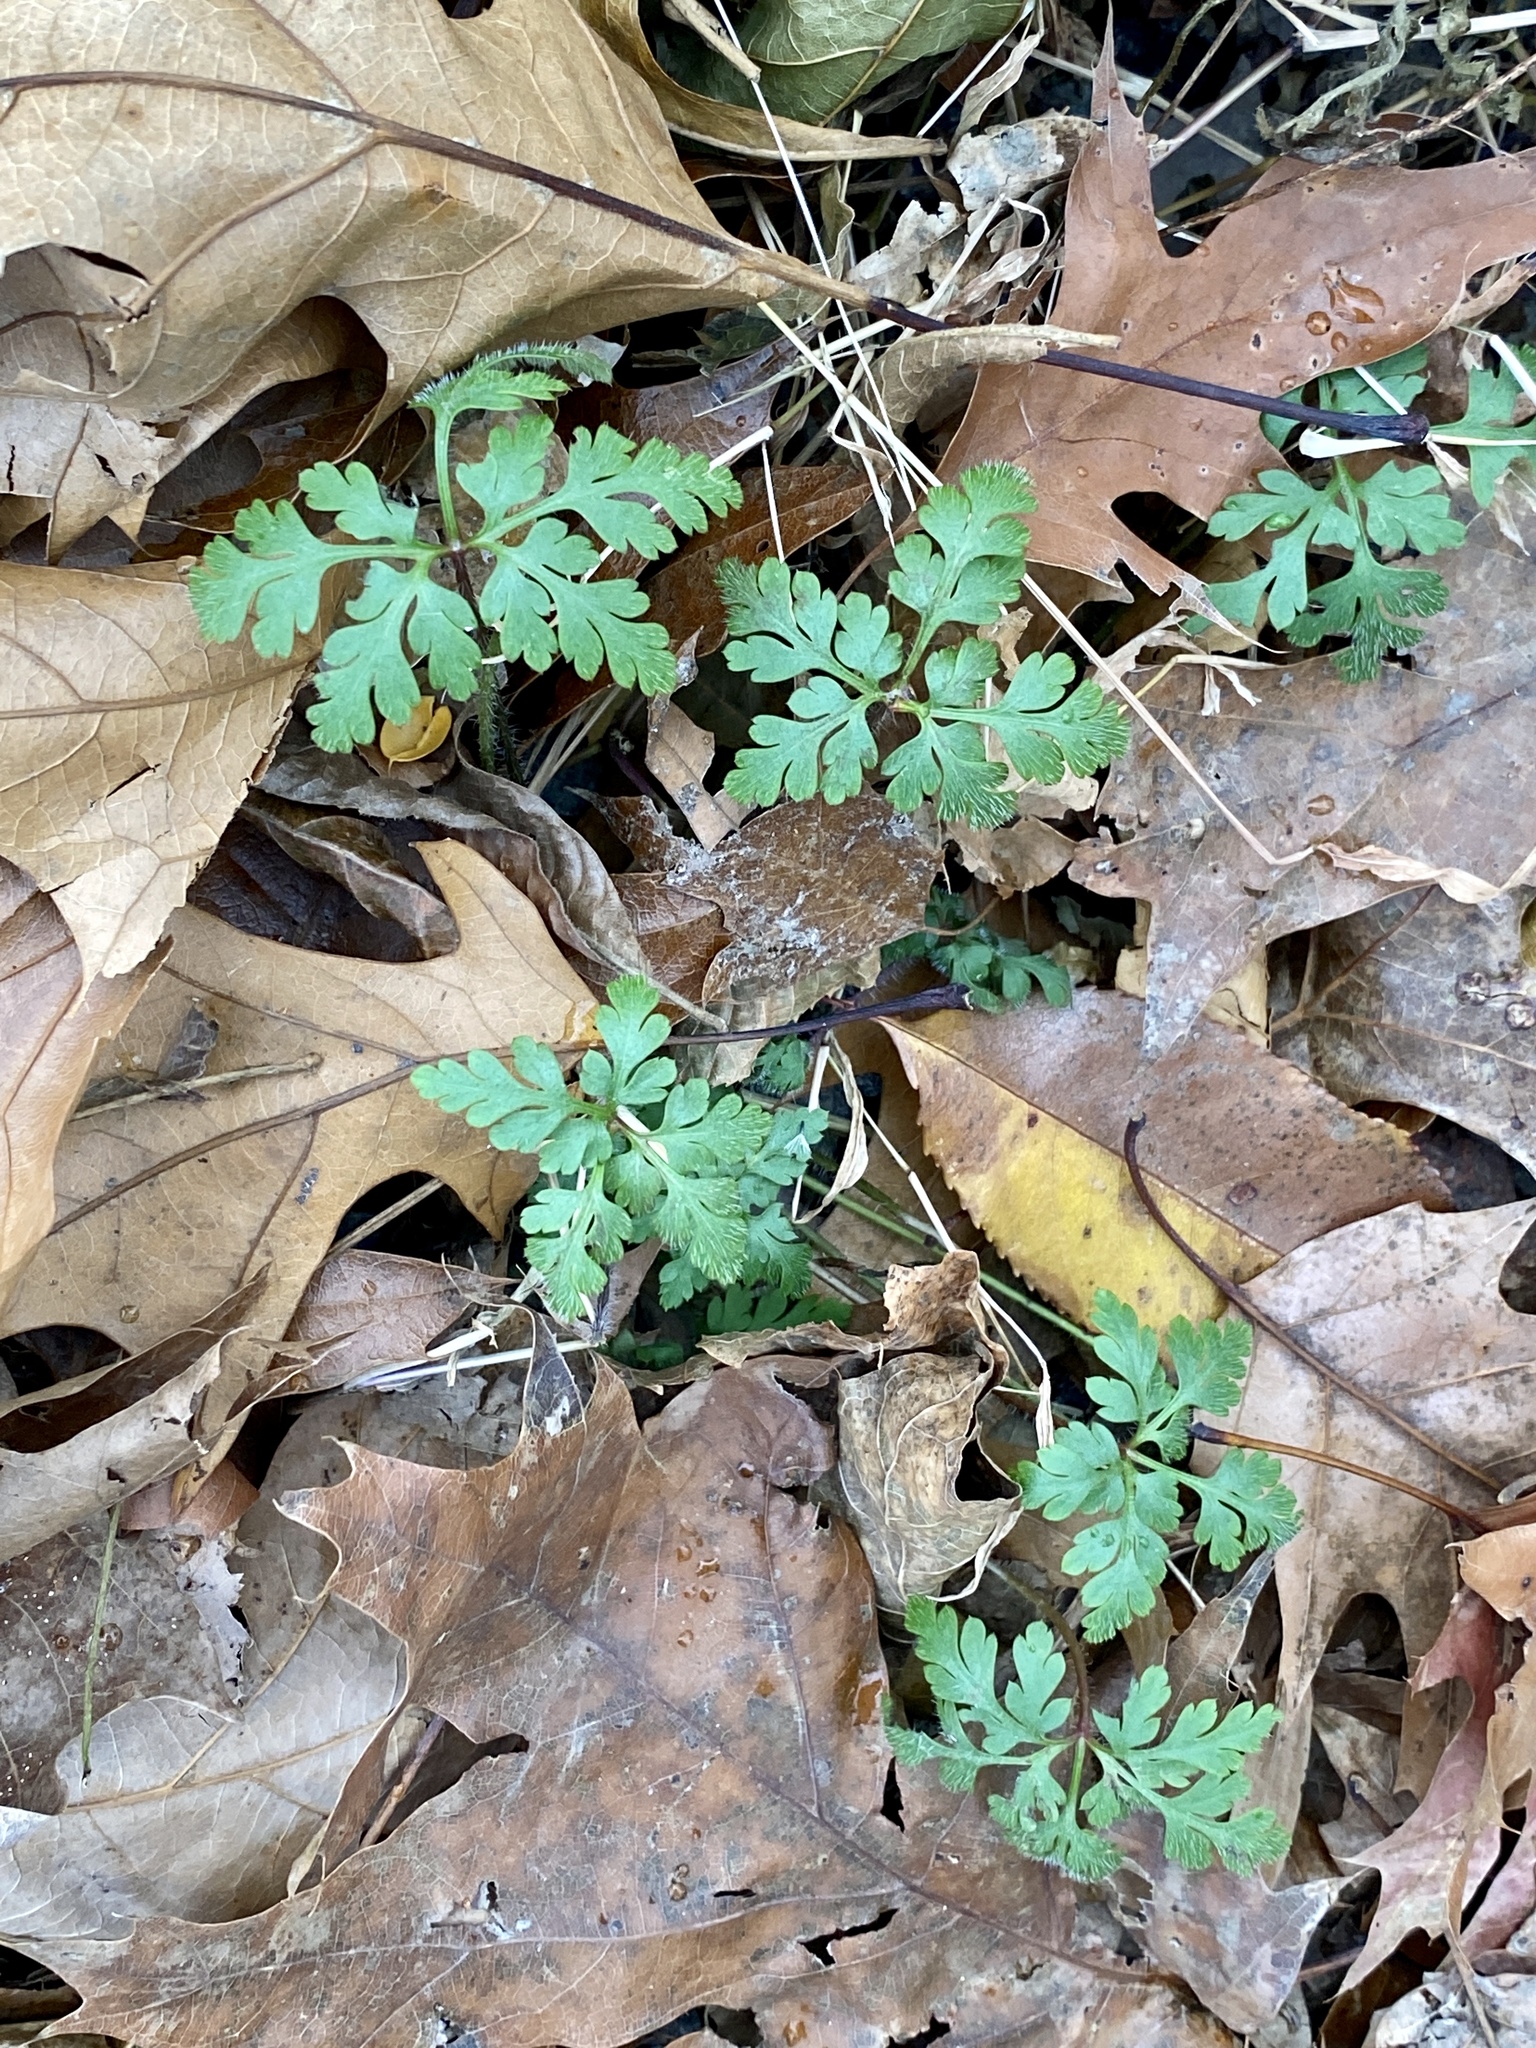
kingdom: Plantae
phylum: Tracheophyta
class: Magnoliopsida
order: Geraniales
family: Geraniaceae
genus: Geranium
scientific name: Geranium robertianum
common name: Herb-robert
